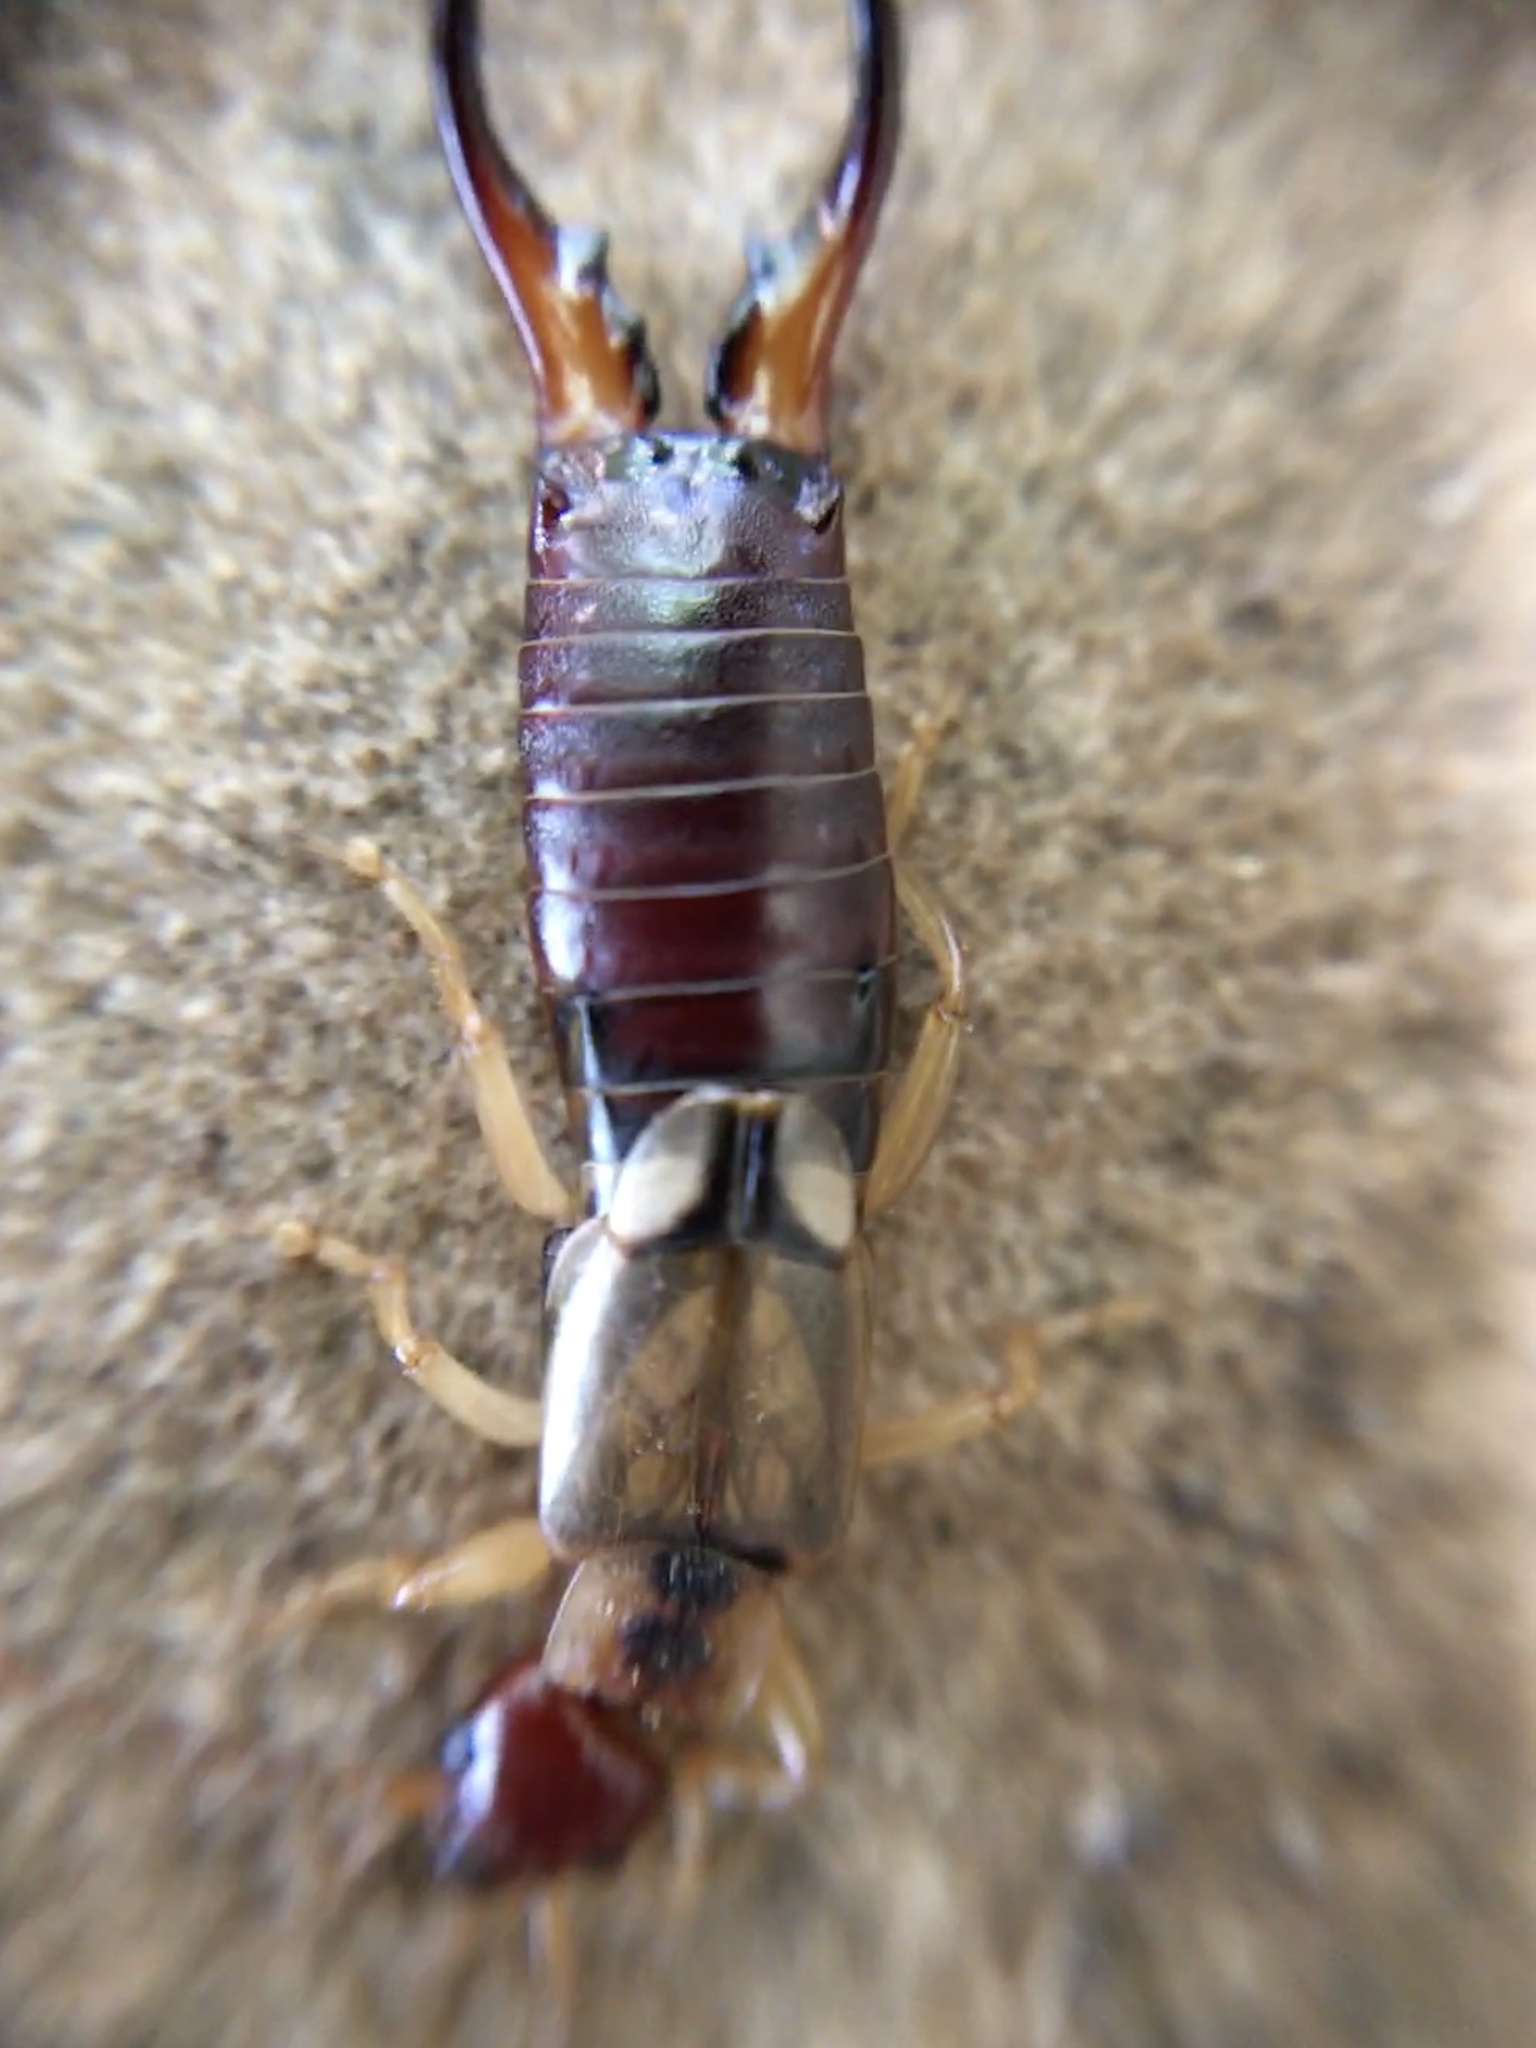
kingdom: Animalia
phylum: Arthropoda
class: Insecta
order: Dermaptera
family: Forficulidae
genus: Forficula
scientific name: Forficula
